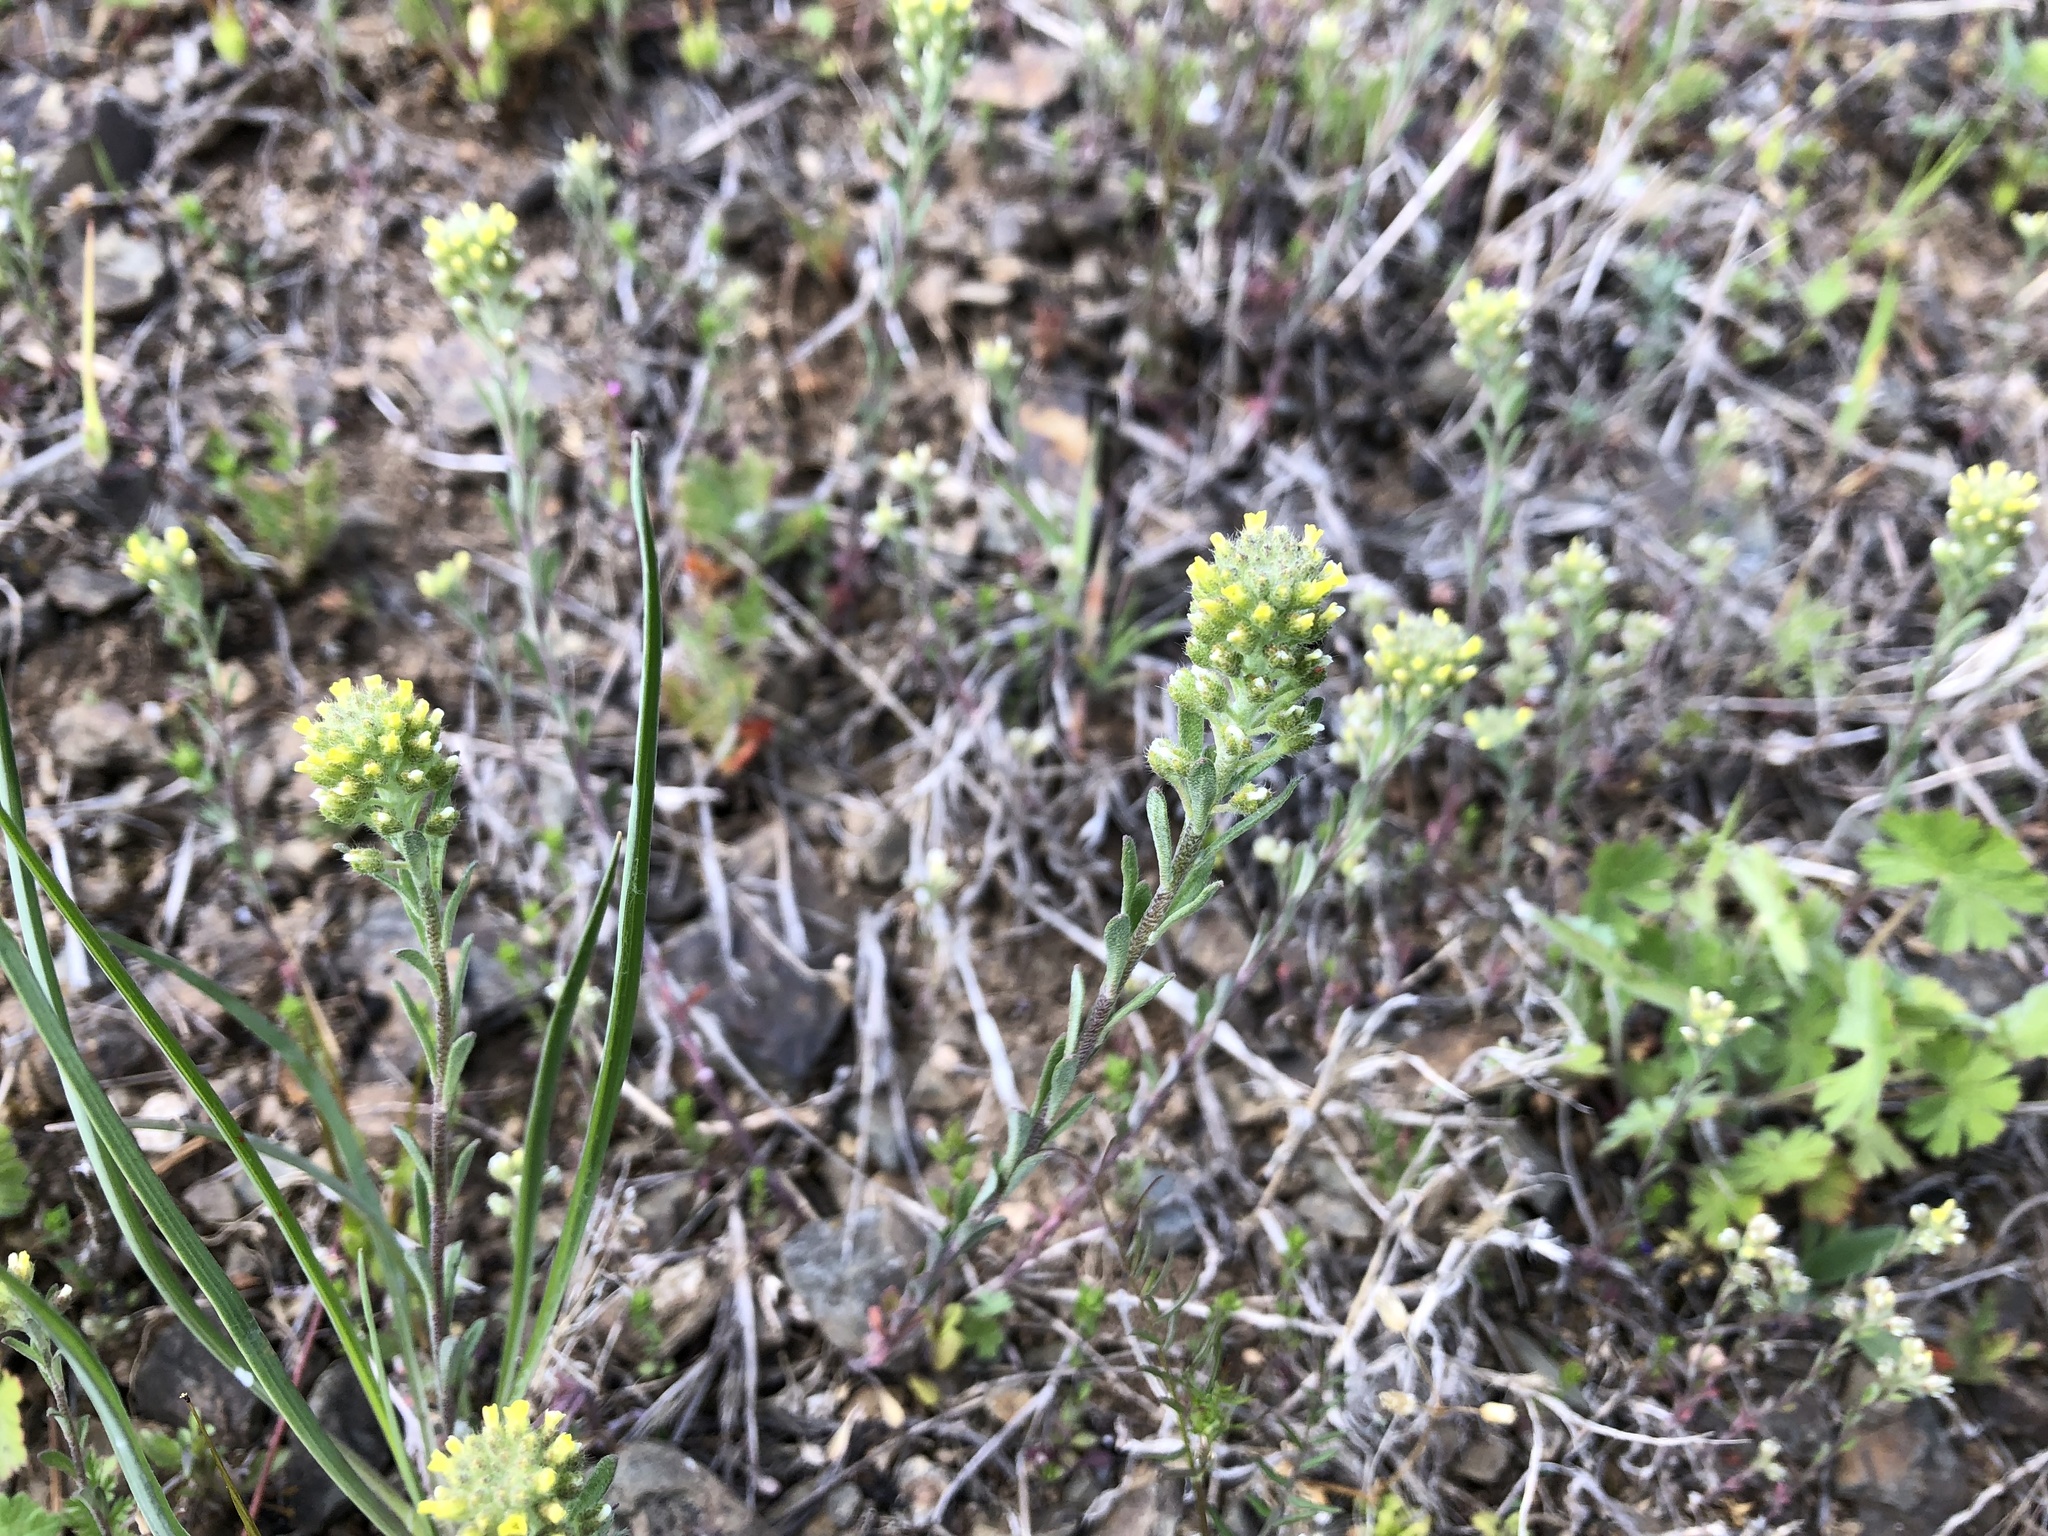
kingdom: Plantae
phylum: Tracheophyta
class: Magnoliopsida
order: Brassicales
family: Brassicaceae
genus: Alyssum
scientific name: Alyssum alyssoides
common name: Small alison
